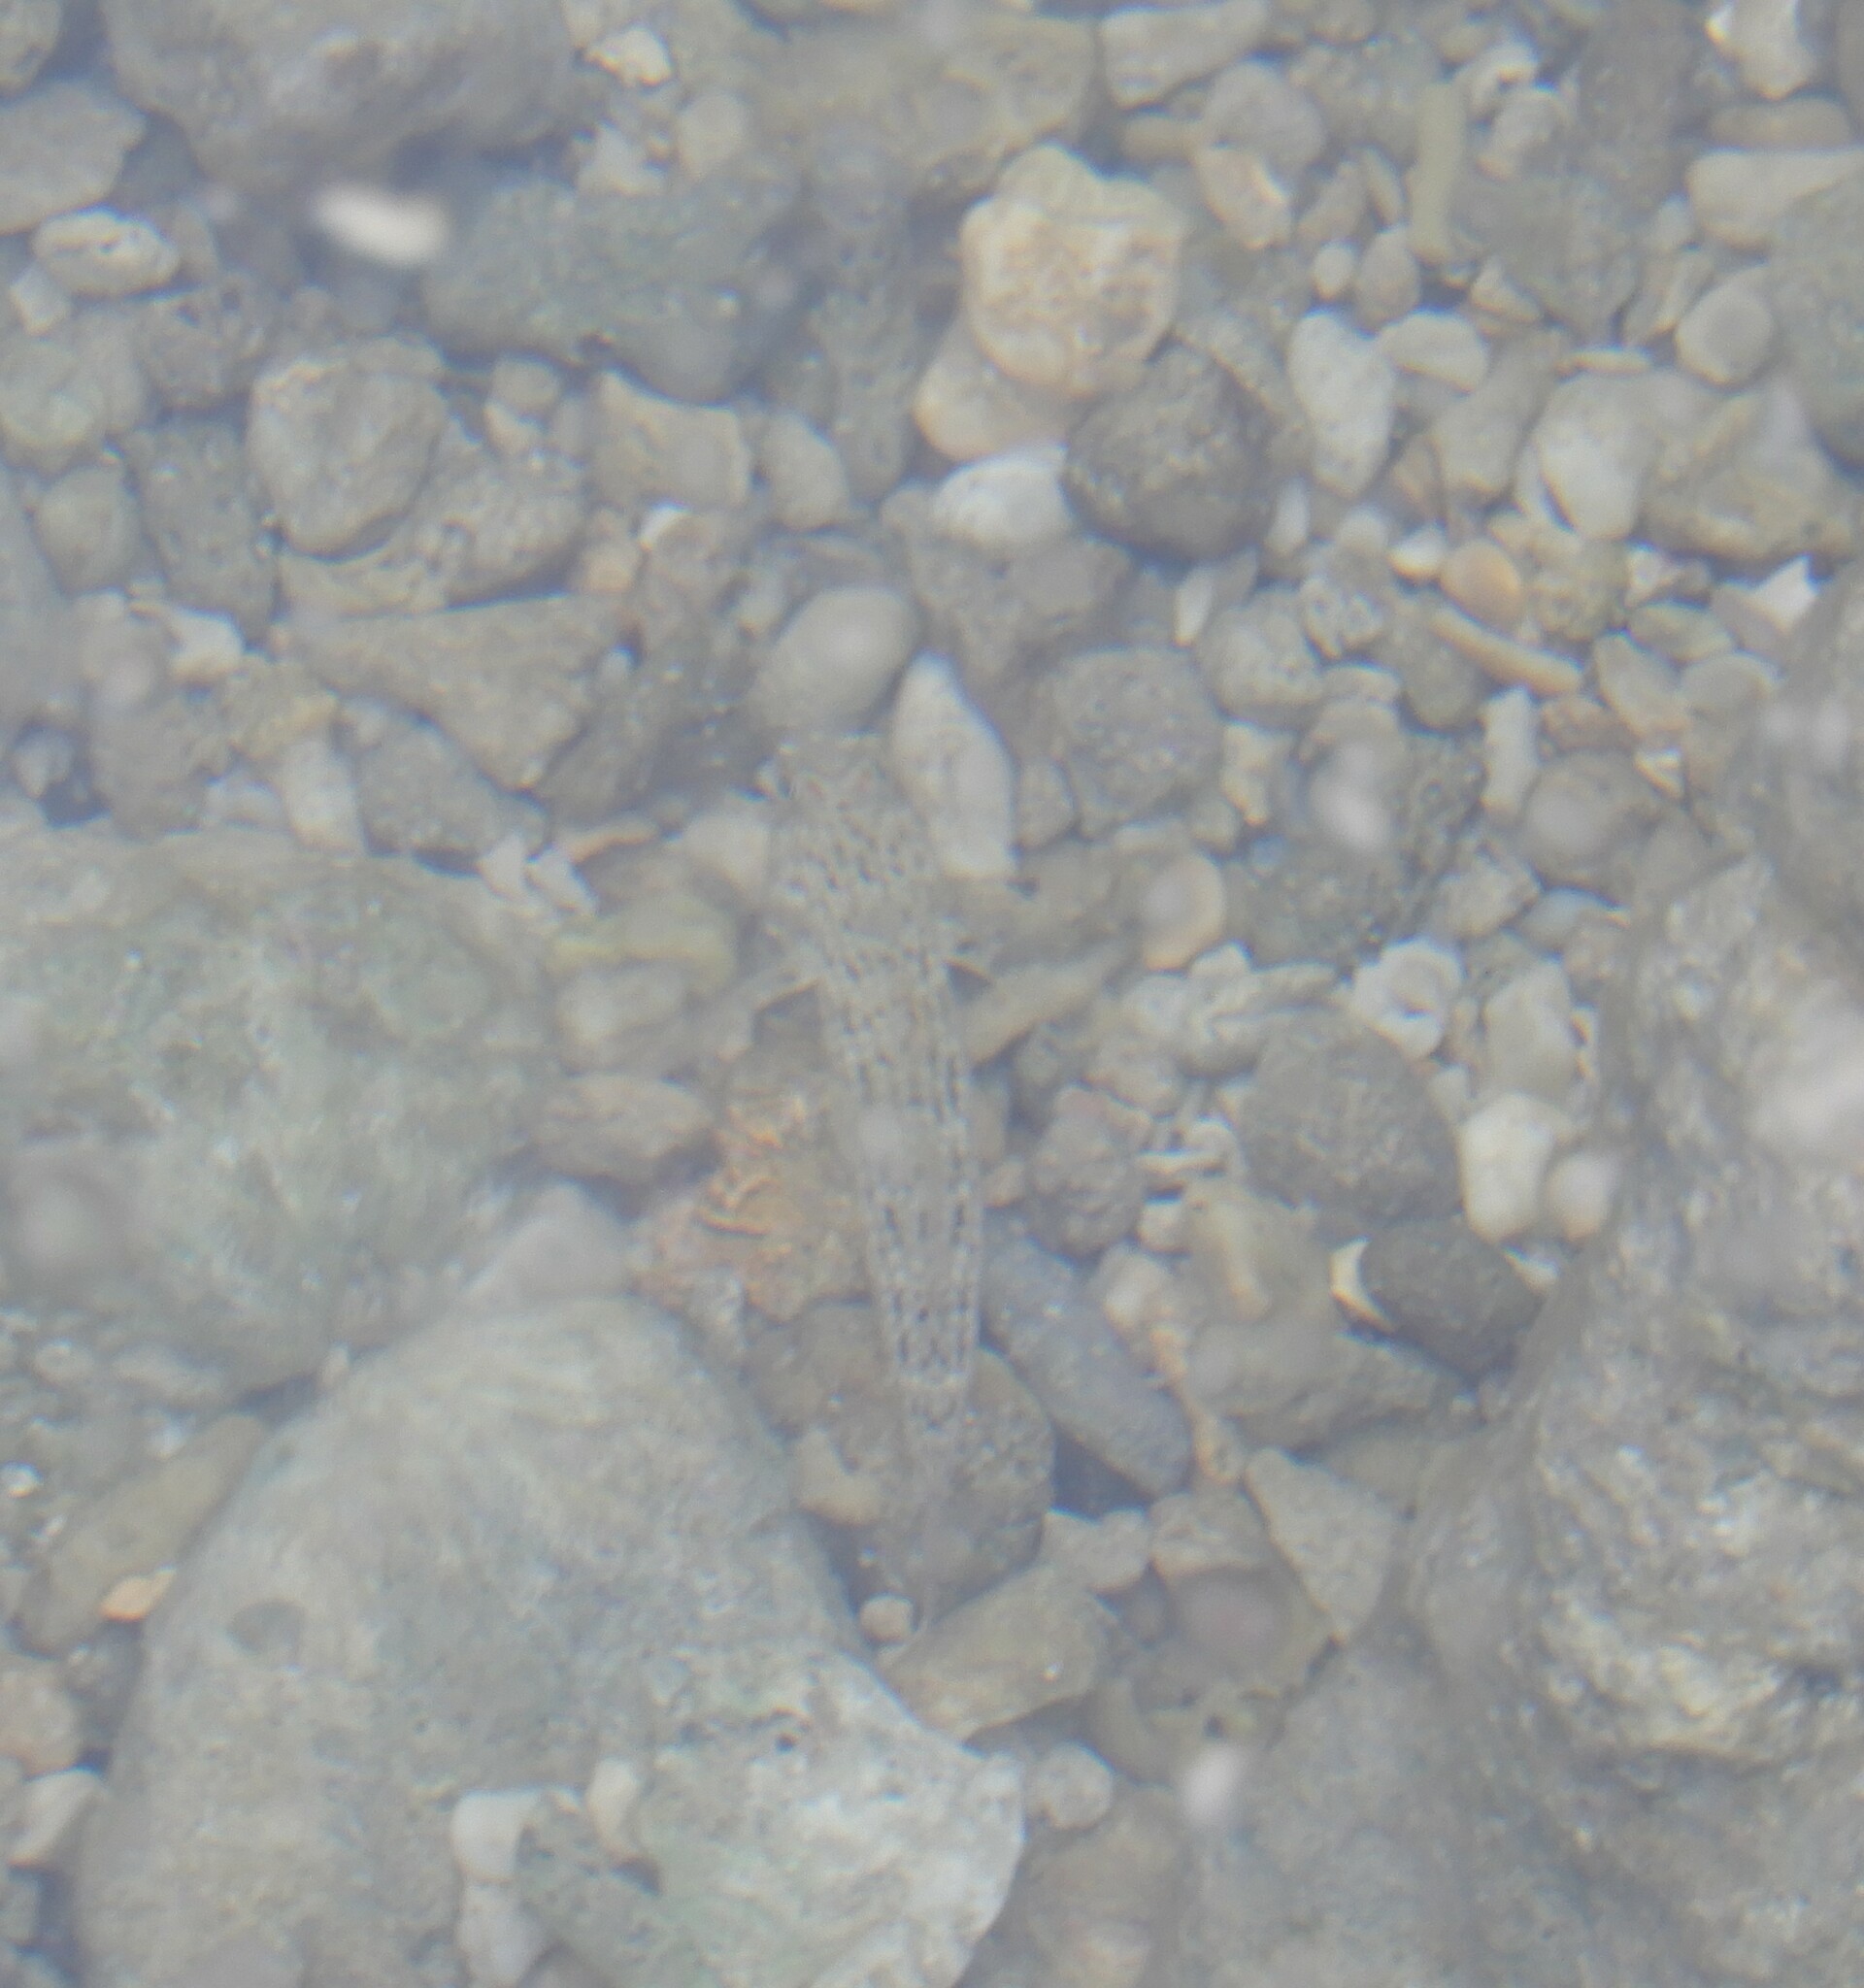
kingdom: Animalia
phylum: Chordata
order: Perciformes
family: Gobiidae
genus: Istigobius
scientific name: Istigobius ornatus
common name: Ornate goby
